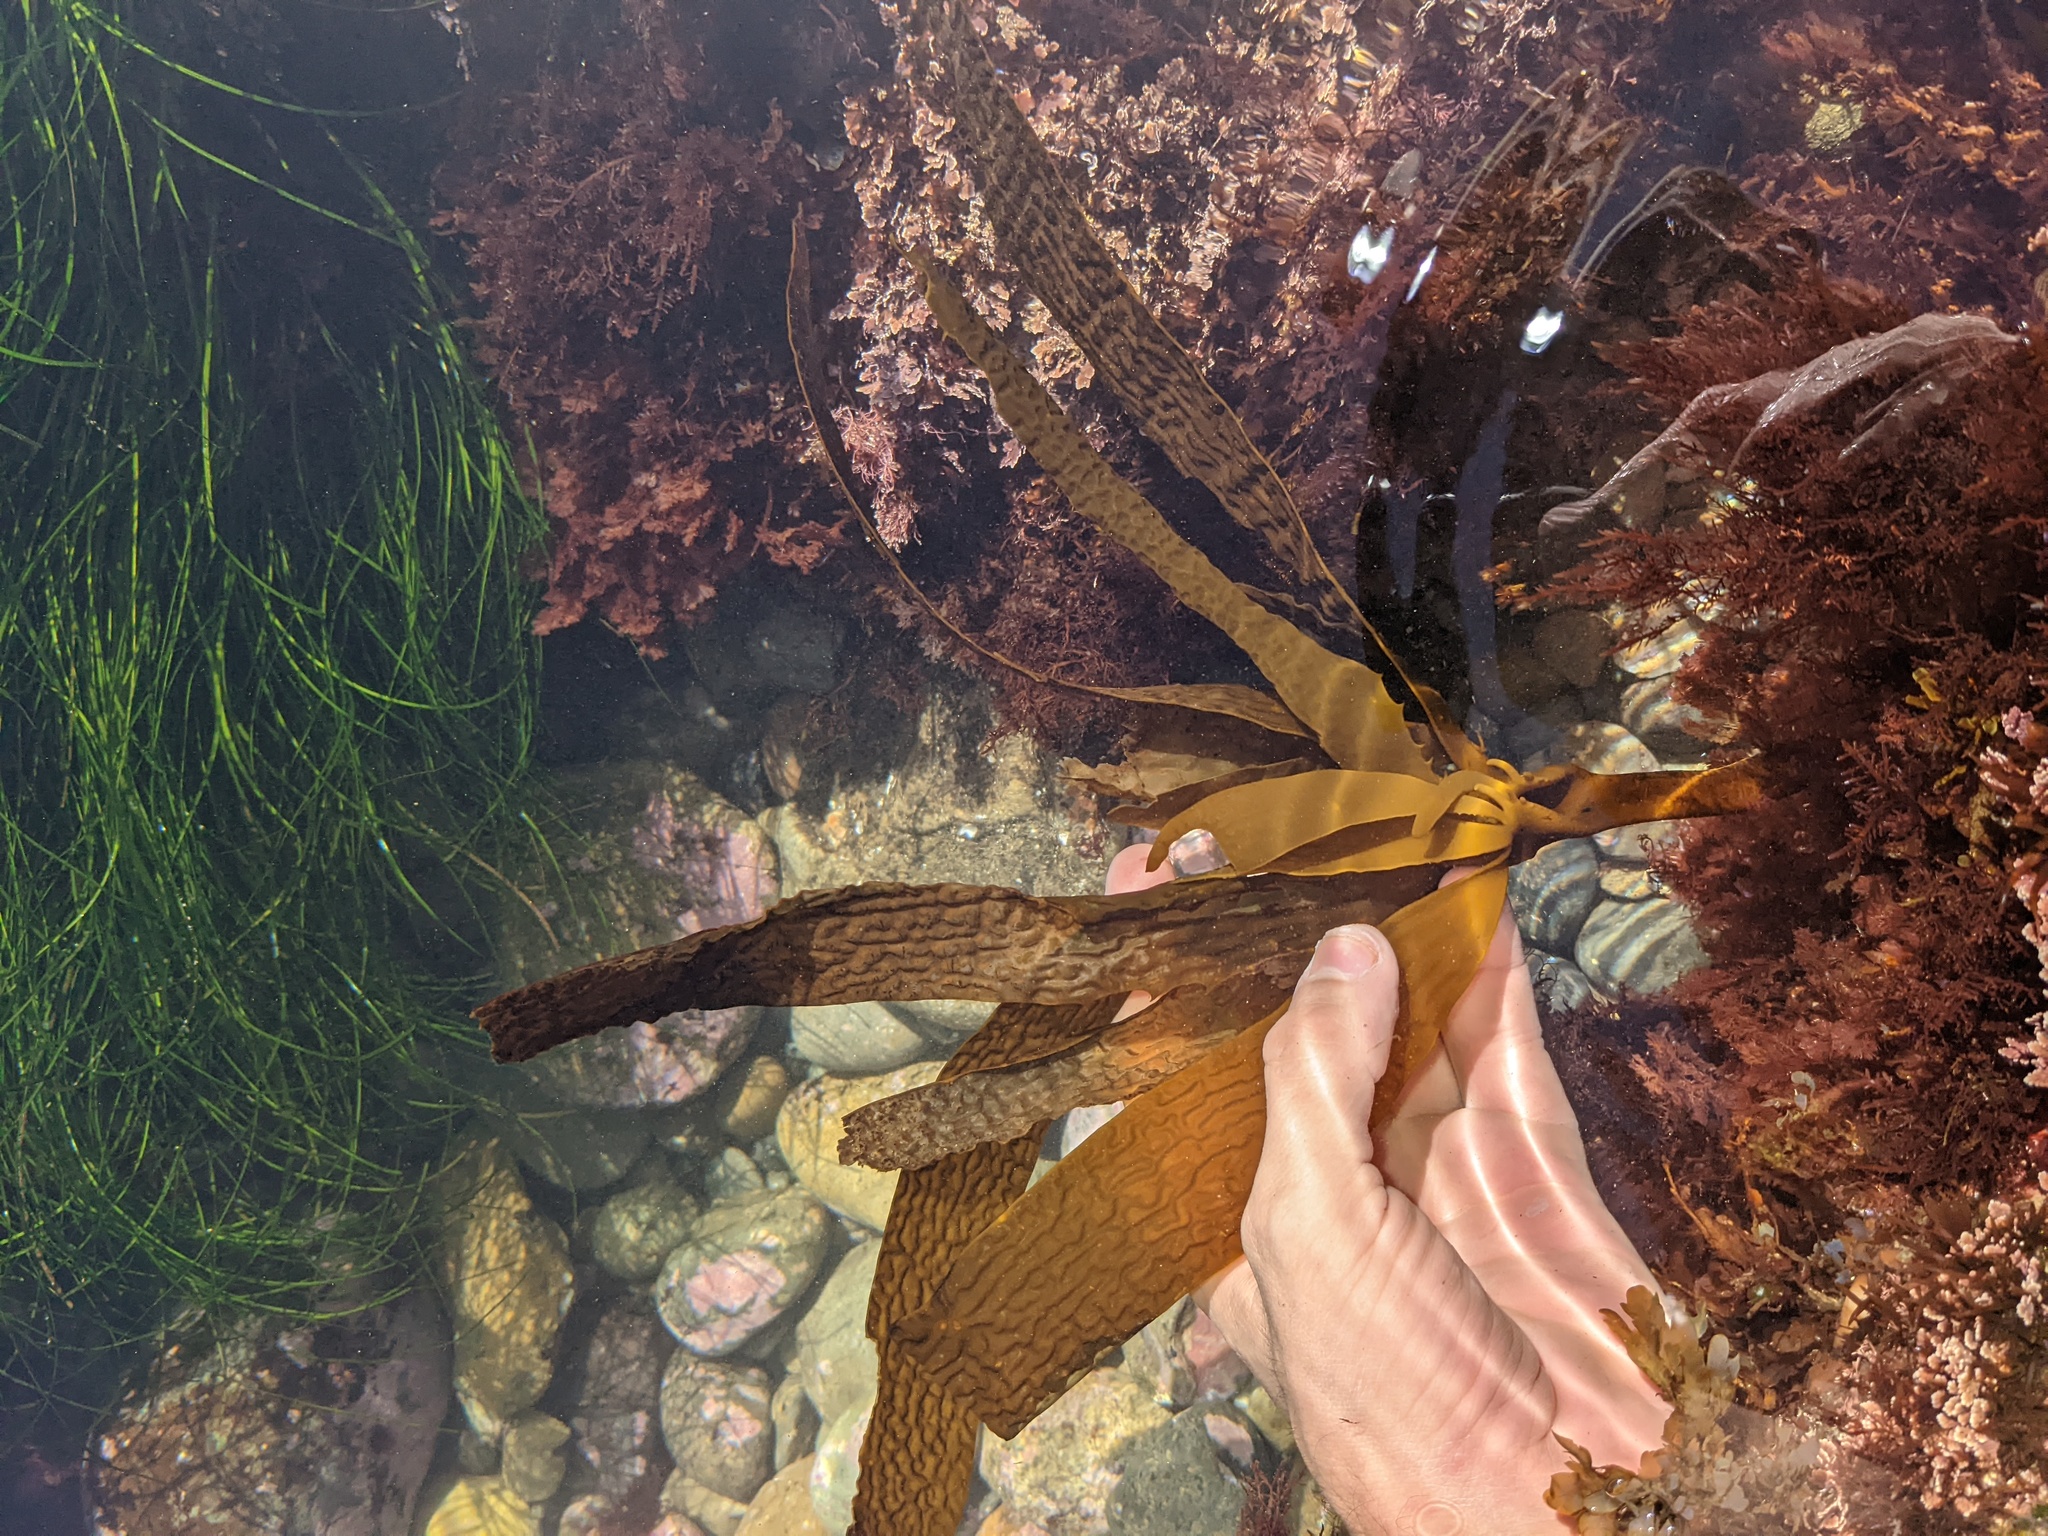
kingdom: Chromista
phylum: Ochrophyta
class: Phaeophyceae
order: Laminariales
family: Lessoniaceae
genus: Eisenia
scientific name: Eisenia arborea
